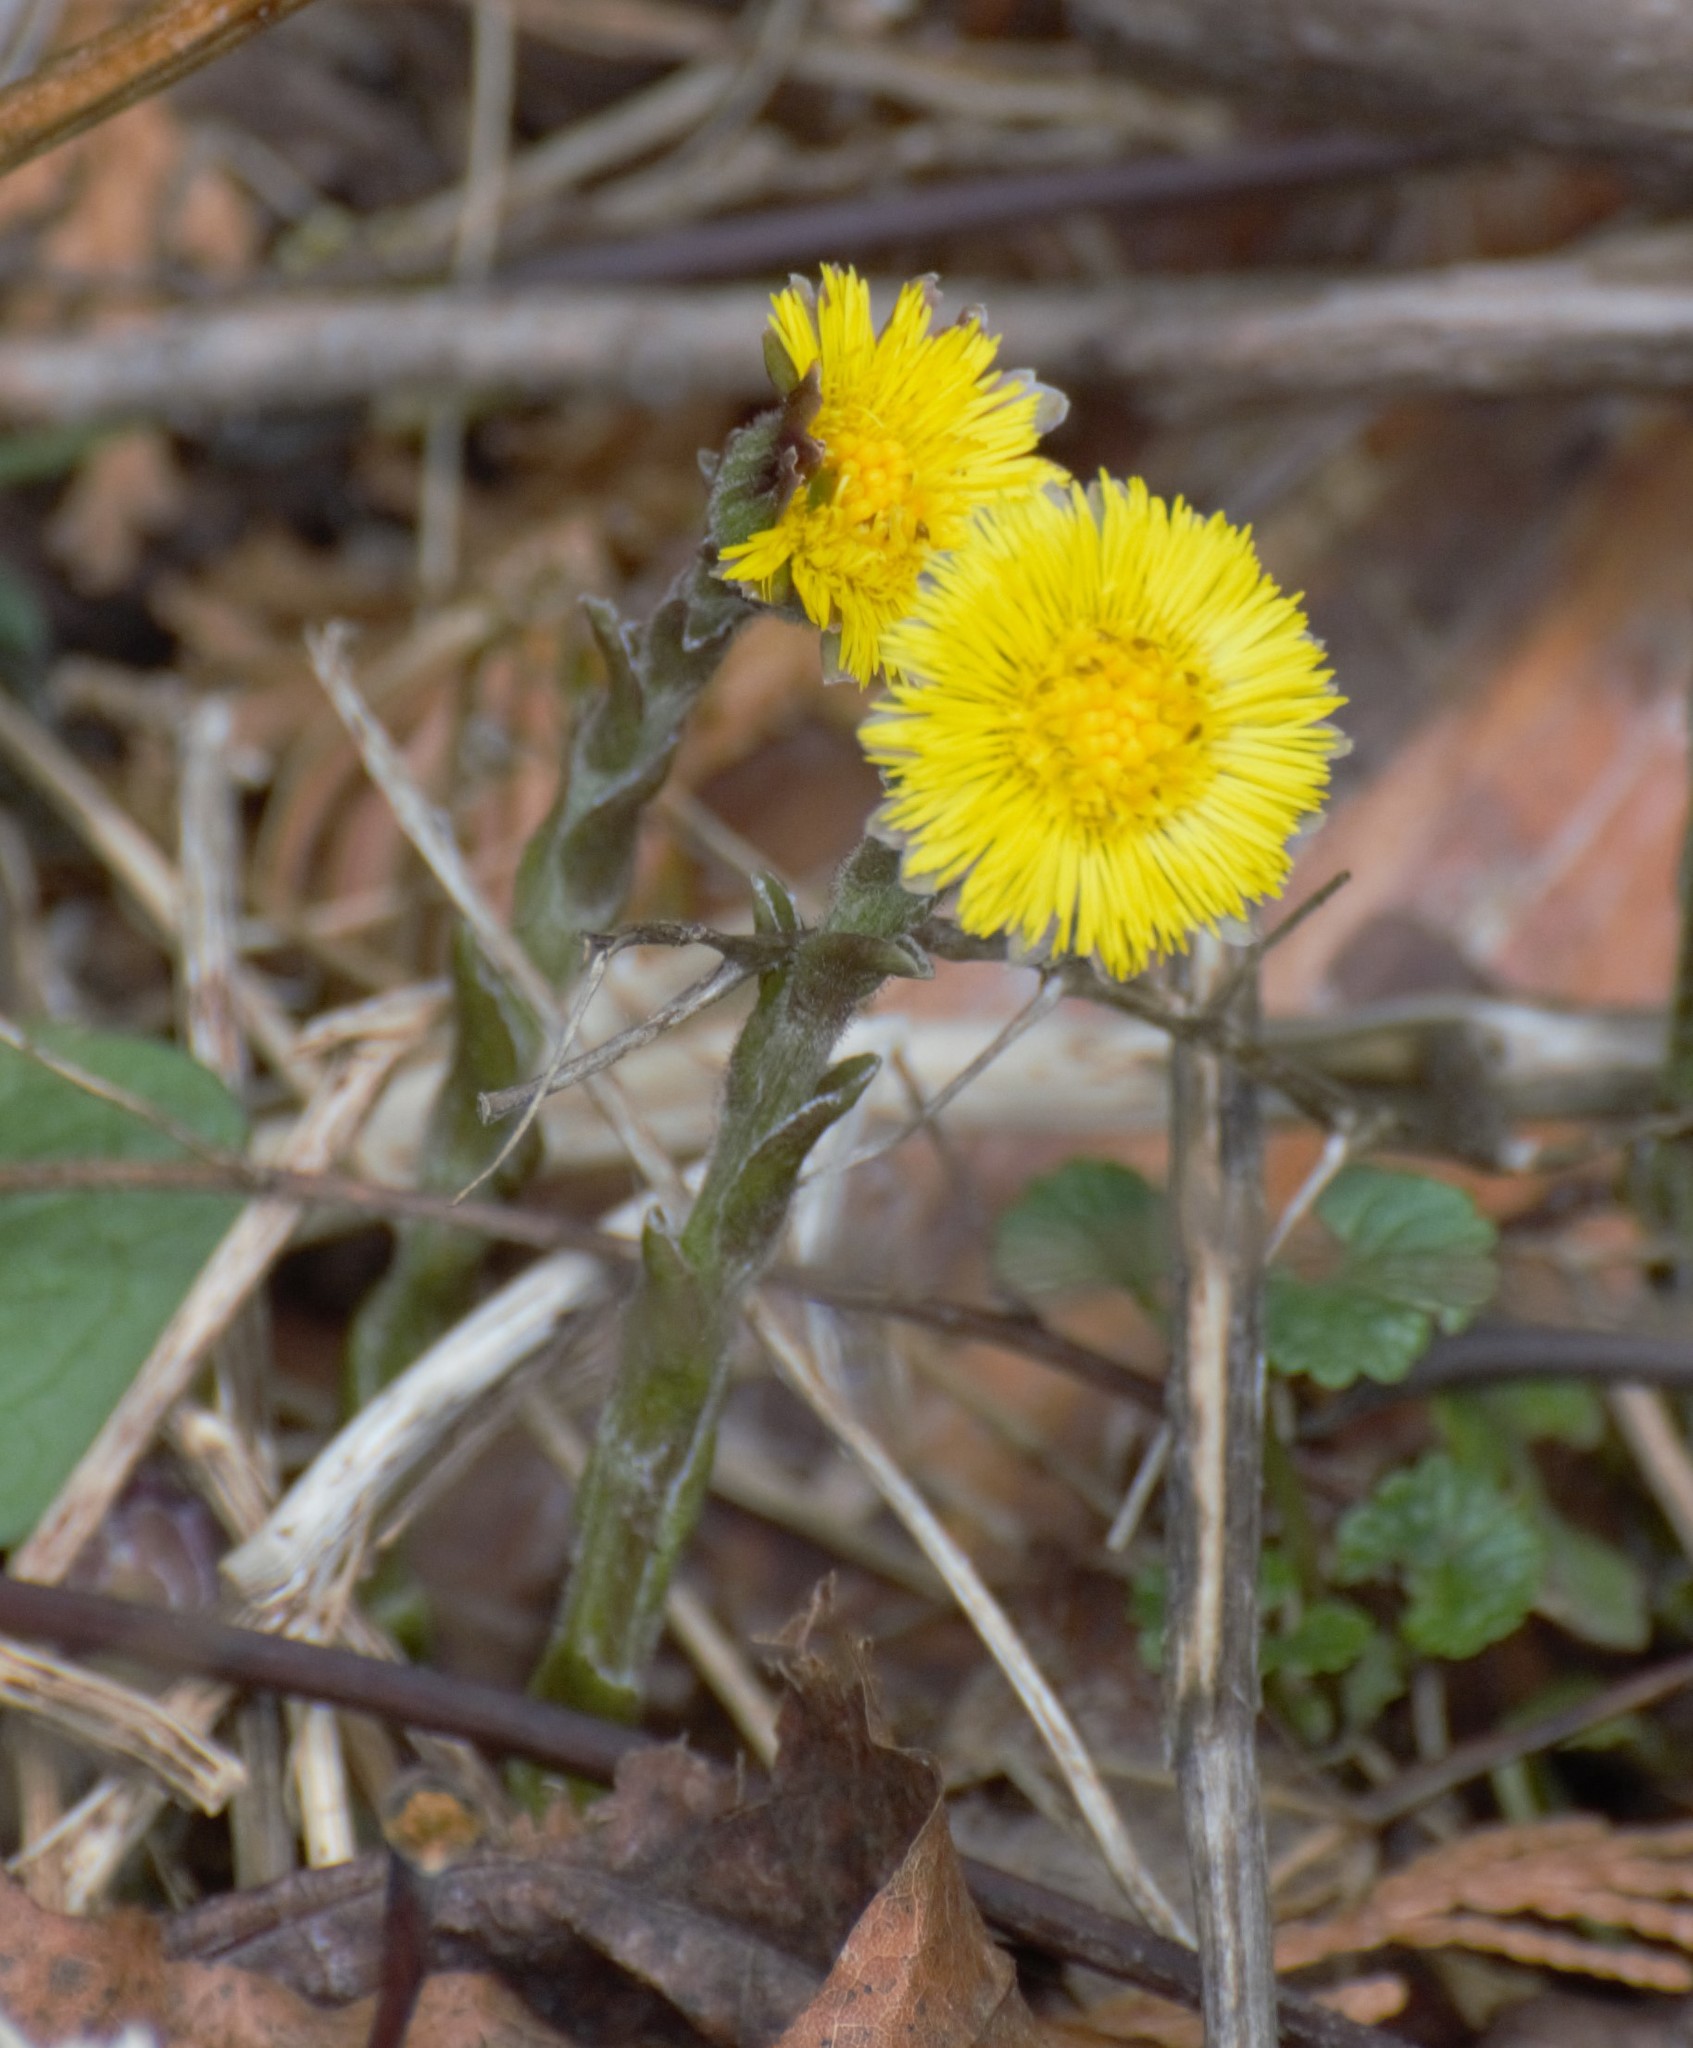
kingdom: Plantae
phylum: Tracheophyta
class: Magnoliopsida
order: Asterales
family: Asteraceae
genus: Tussilago
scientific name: Tussilago farfara
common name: Coltsfoot
